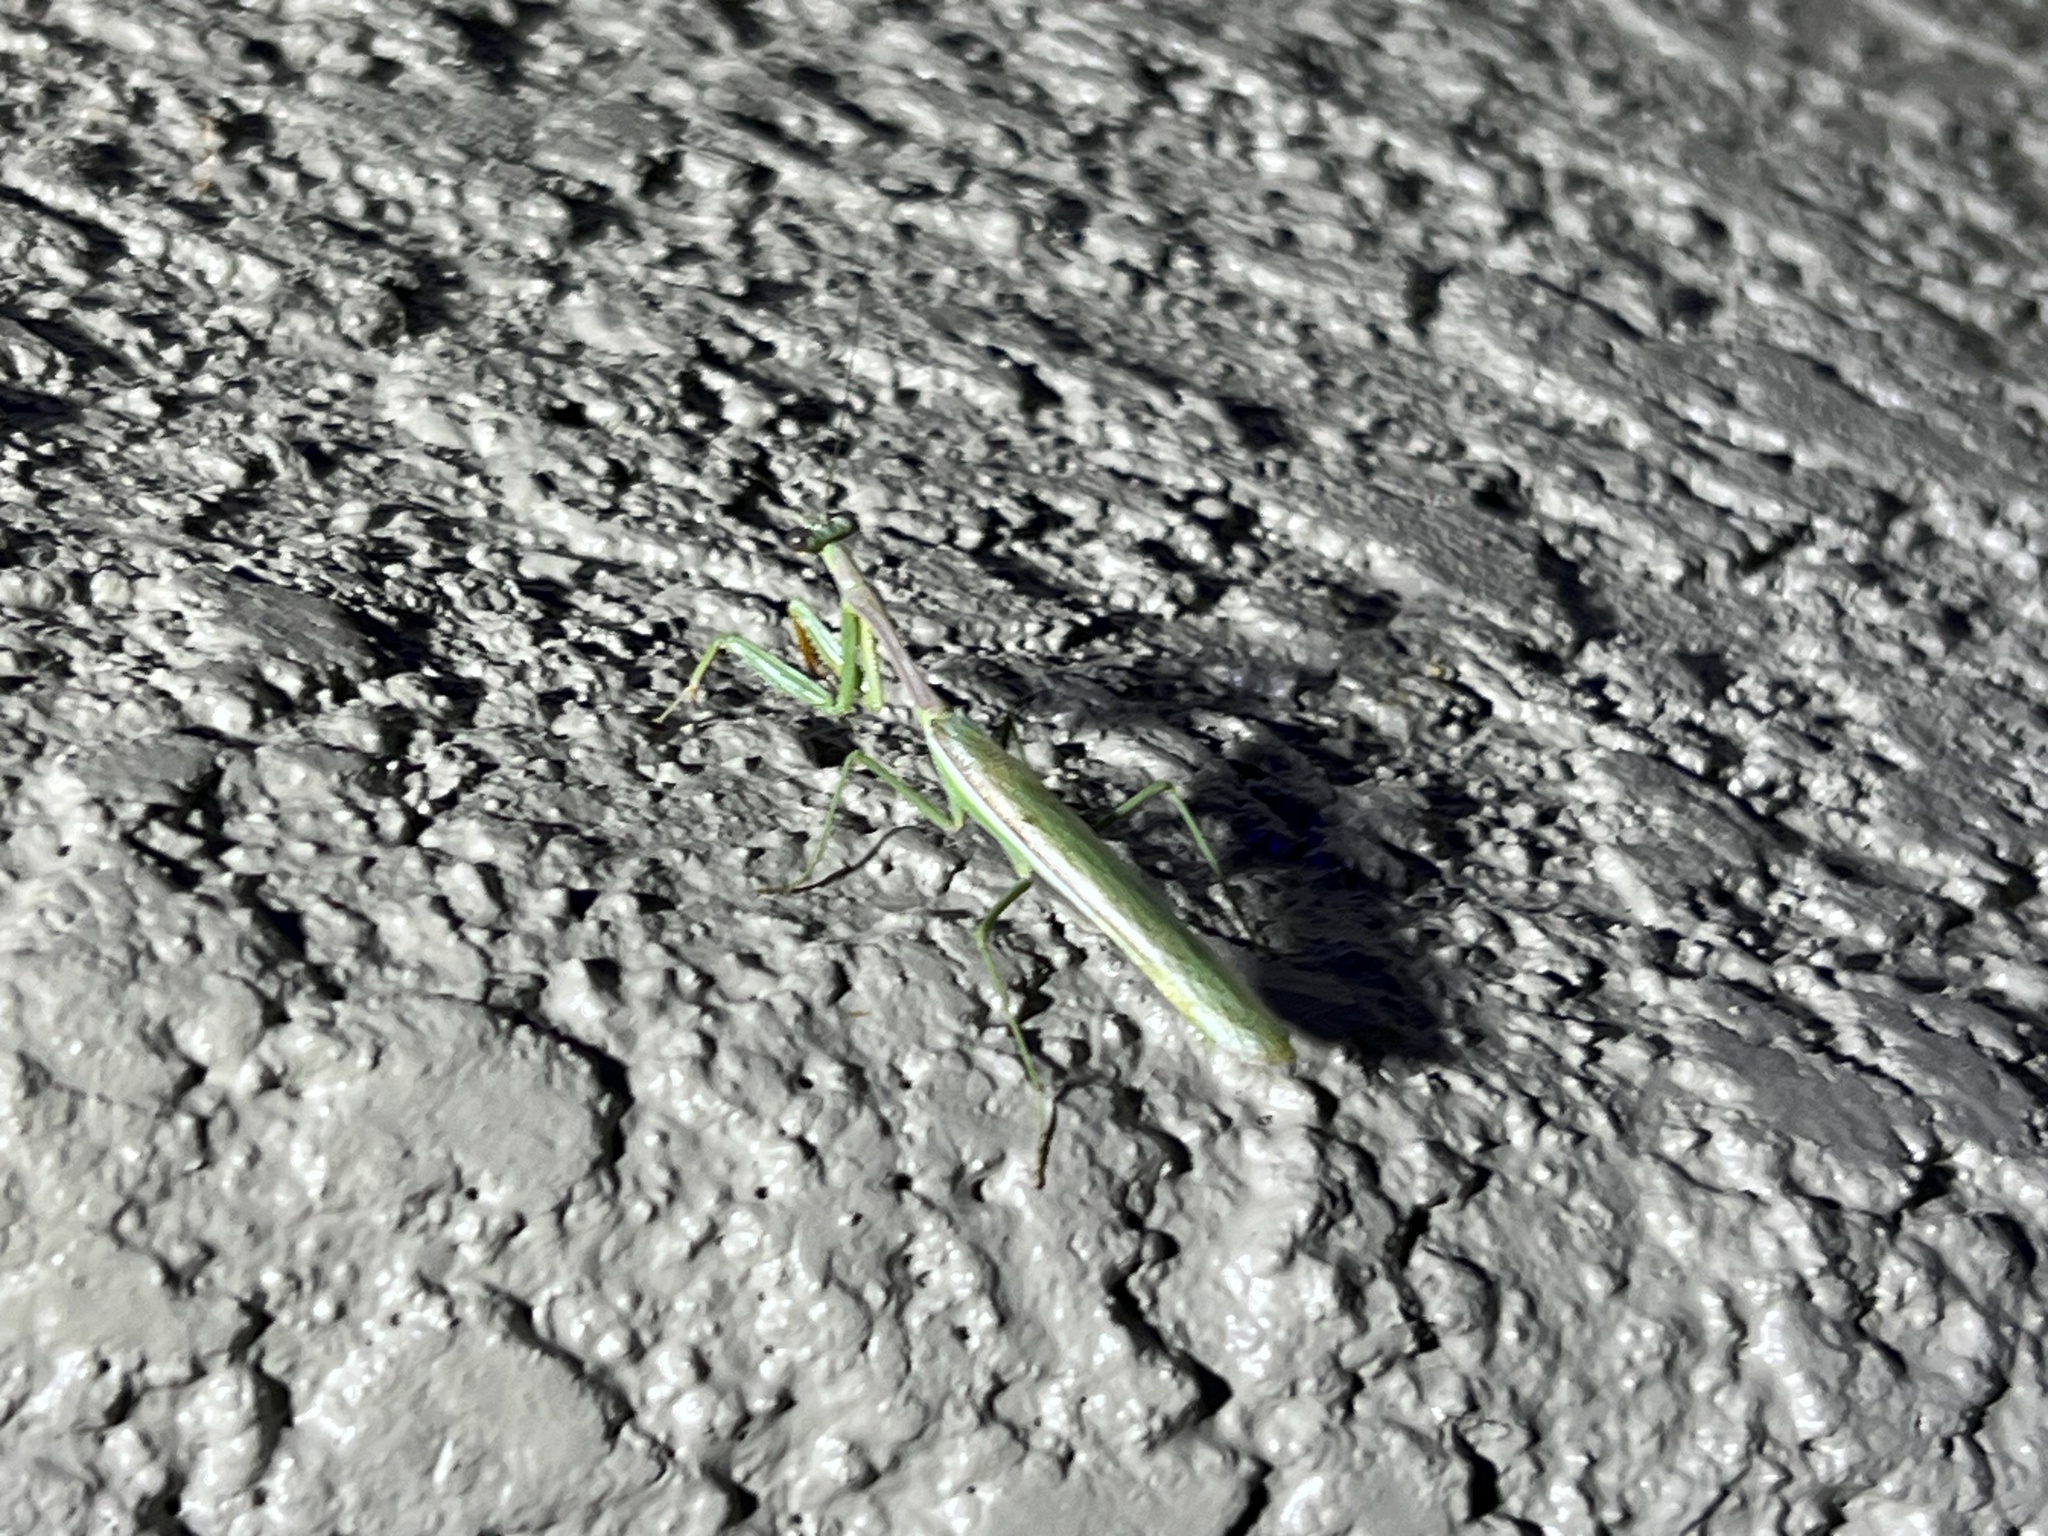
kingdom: Animalia
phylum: Arthropoda
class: Insecta
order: Mantodea
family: Mantidae
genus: Stagmomantis
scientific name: Stagmomantis limbata
